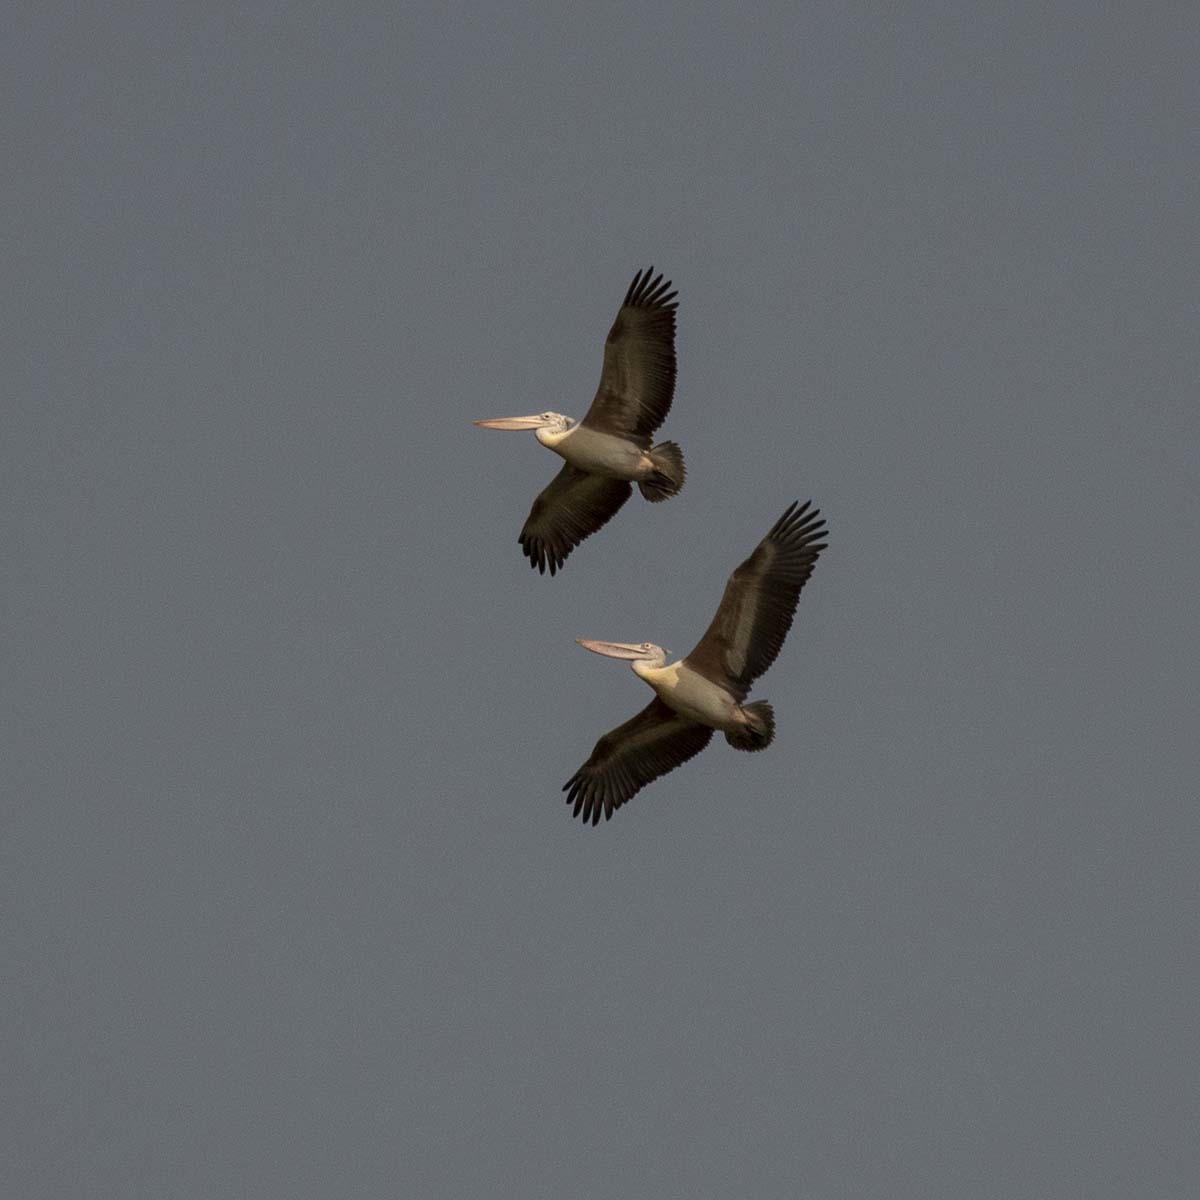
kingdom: Animalia
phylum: Chordata
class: Aves
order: Pelecaniformes
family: Pelecanidae
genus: Pelecanus
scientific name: Pelecanus philippensis
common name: Spot-billed pelican
